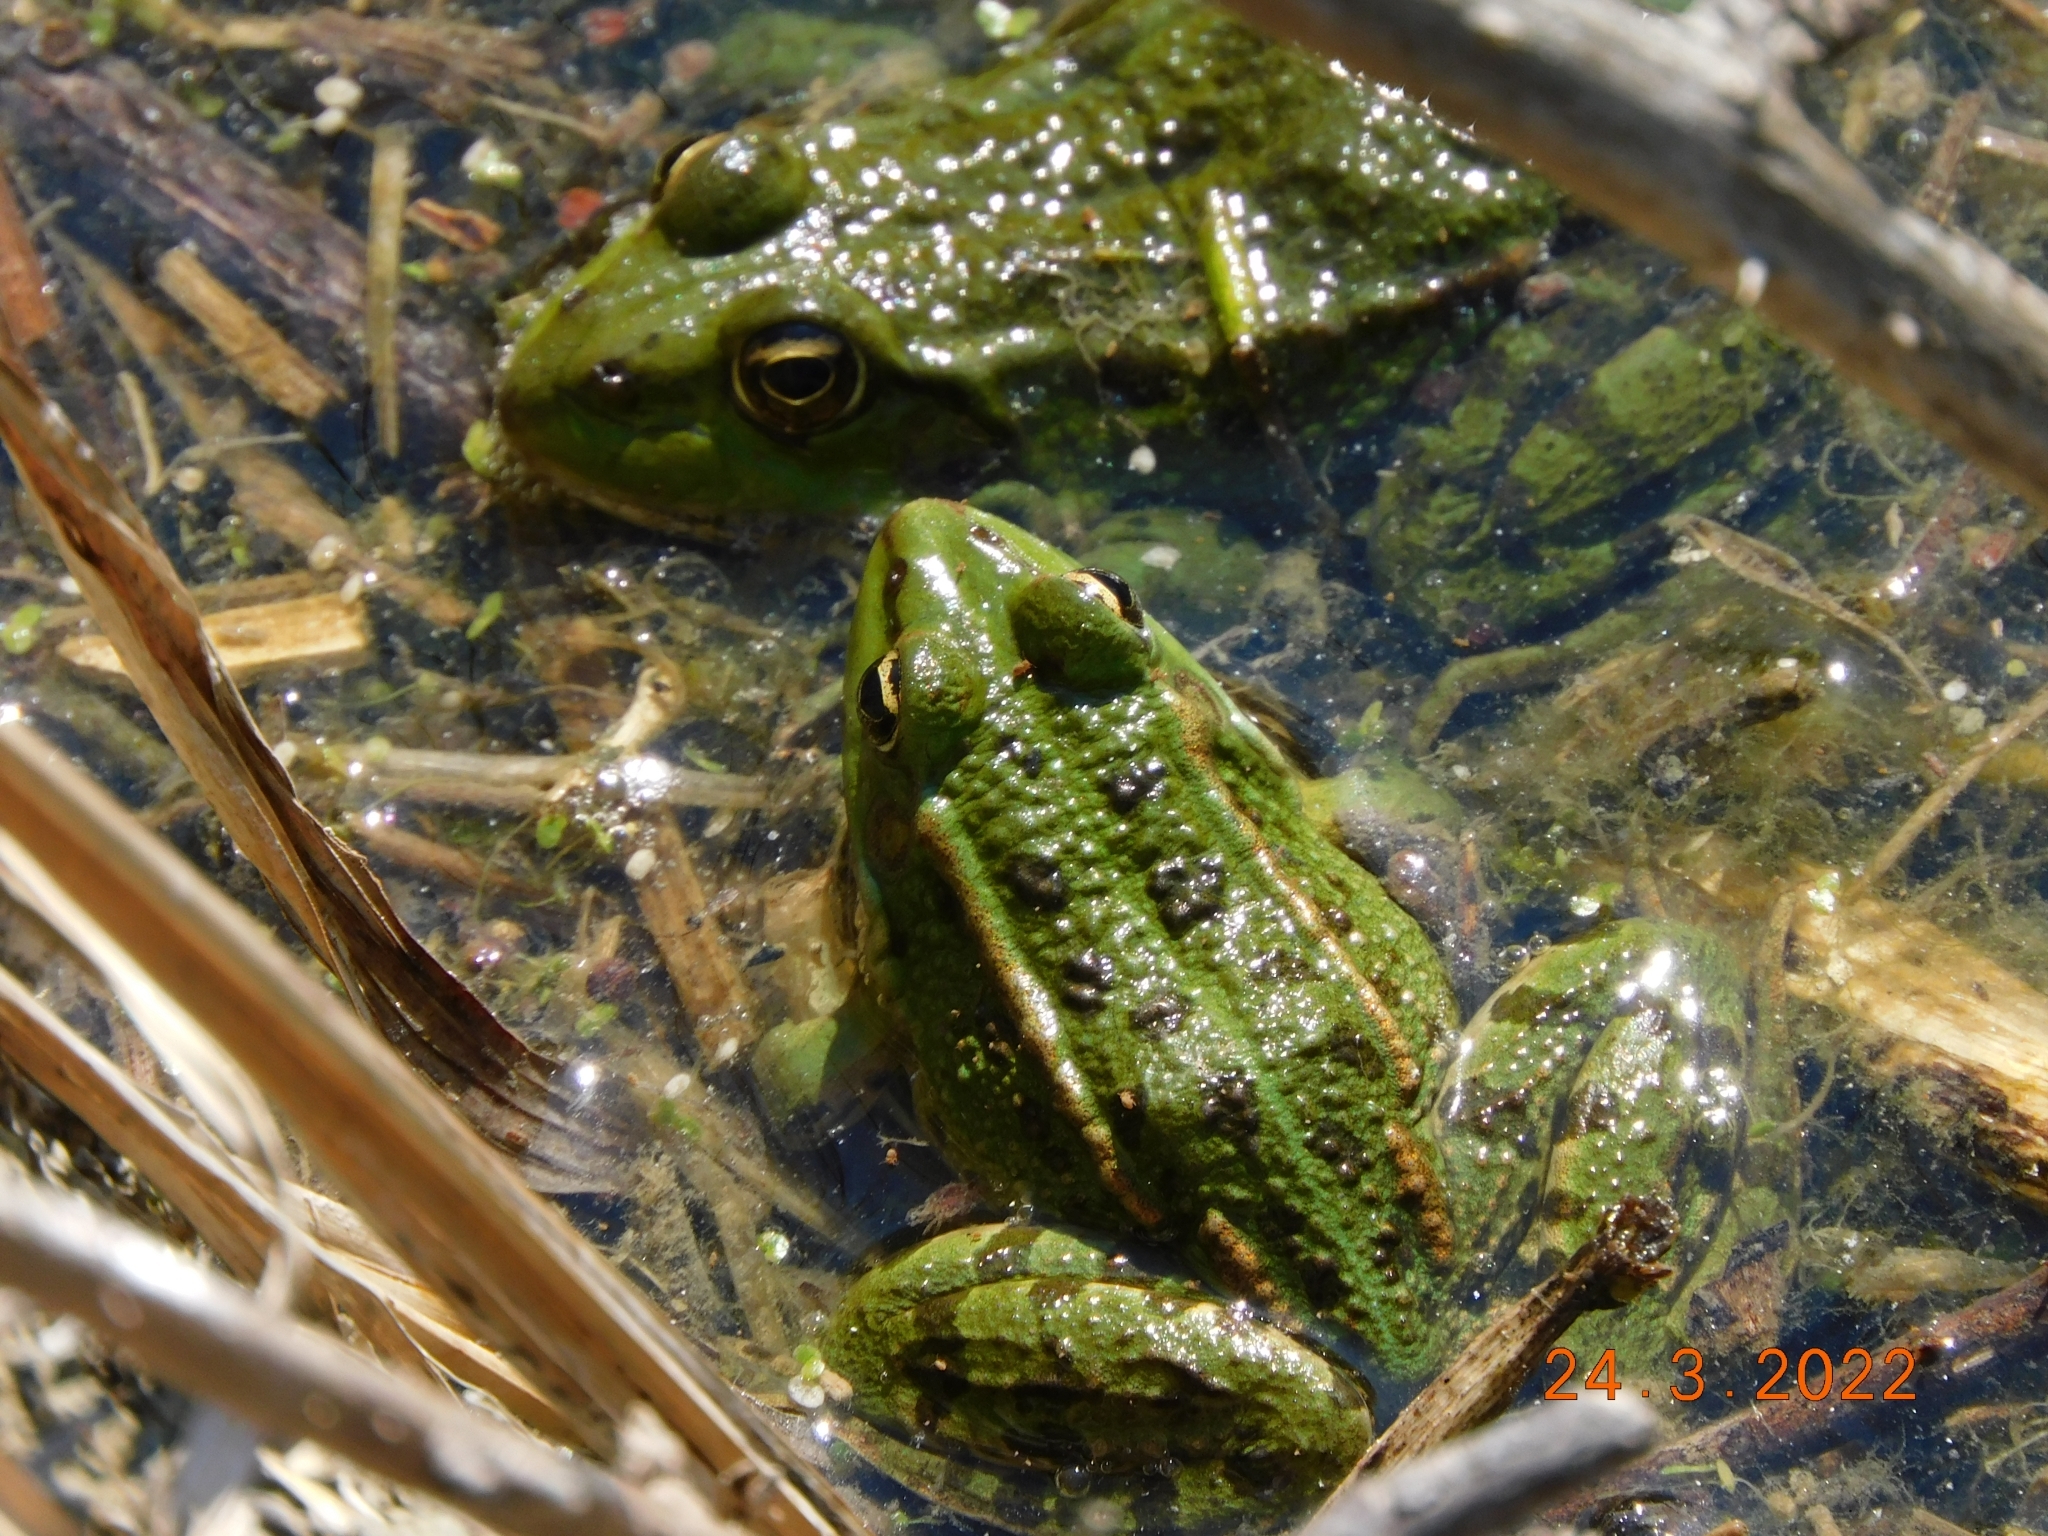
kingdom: Animalia
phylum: Chordata
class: Amphibia
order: Anura
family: Ranidae
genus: Pelophylax
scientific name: Pelophylax
